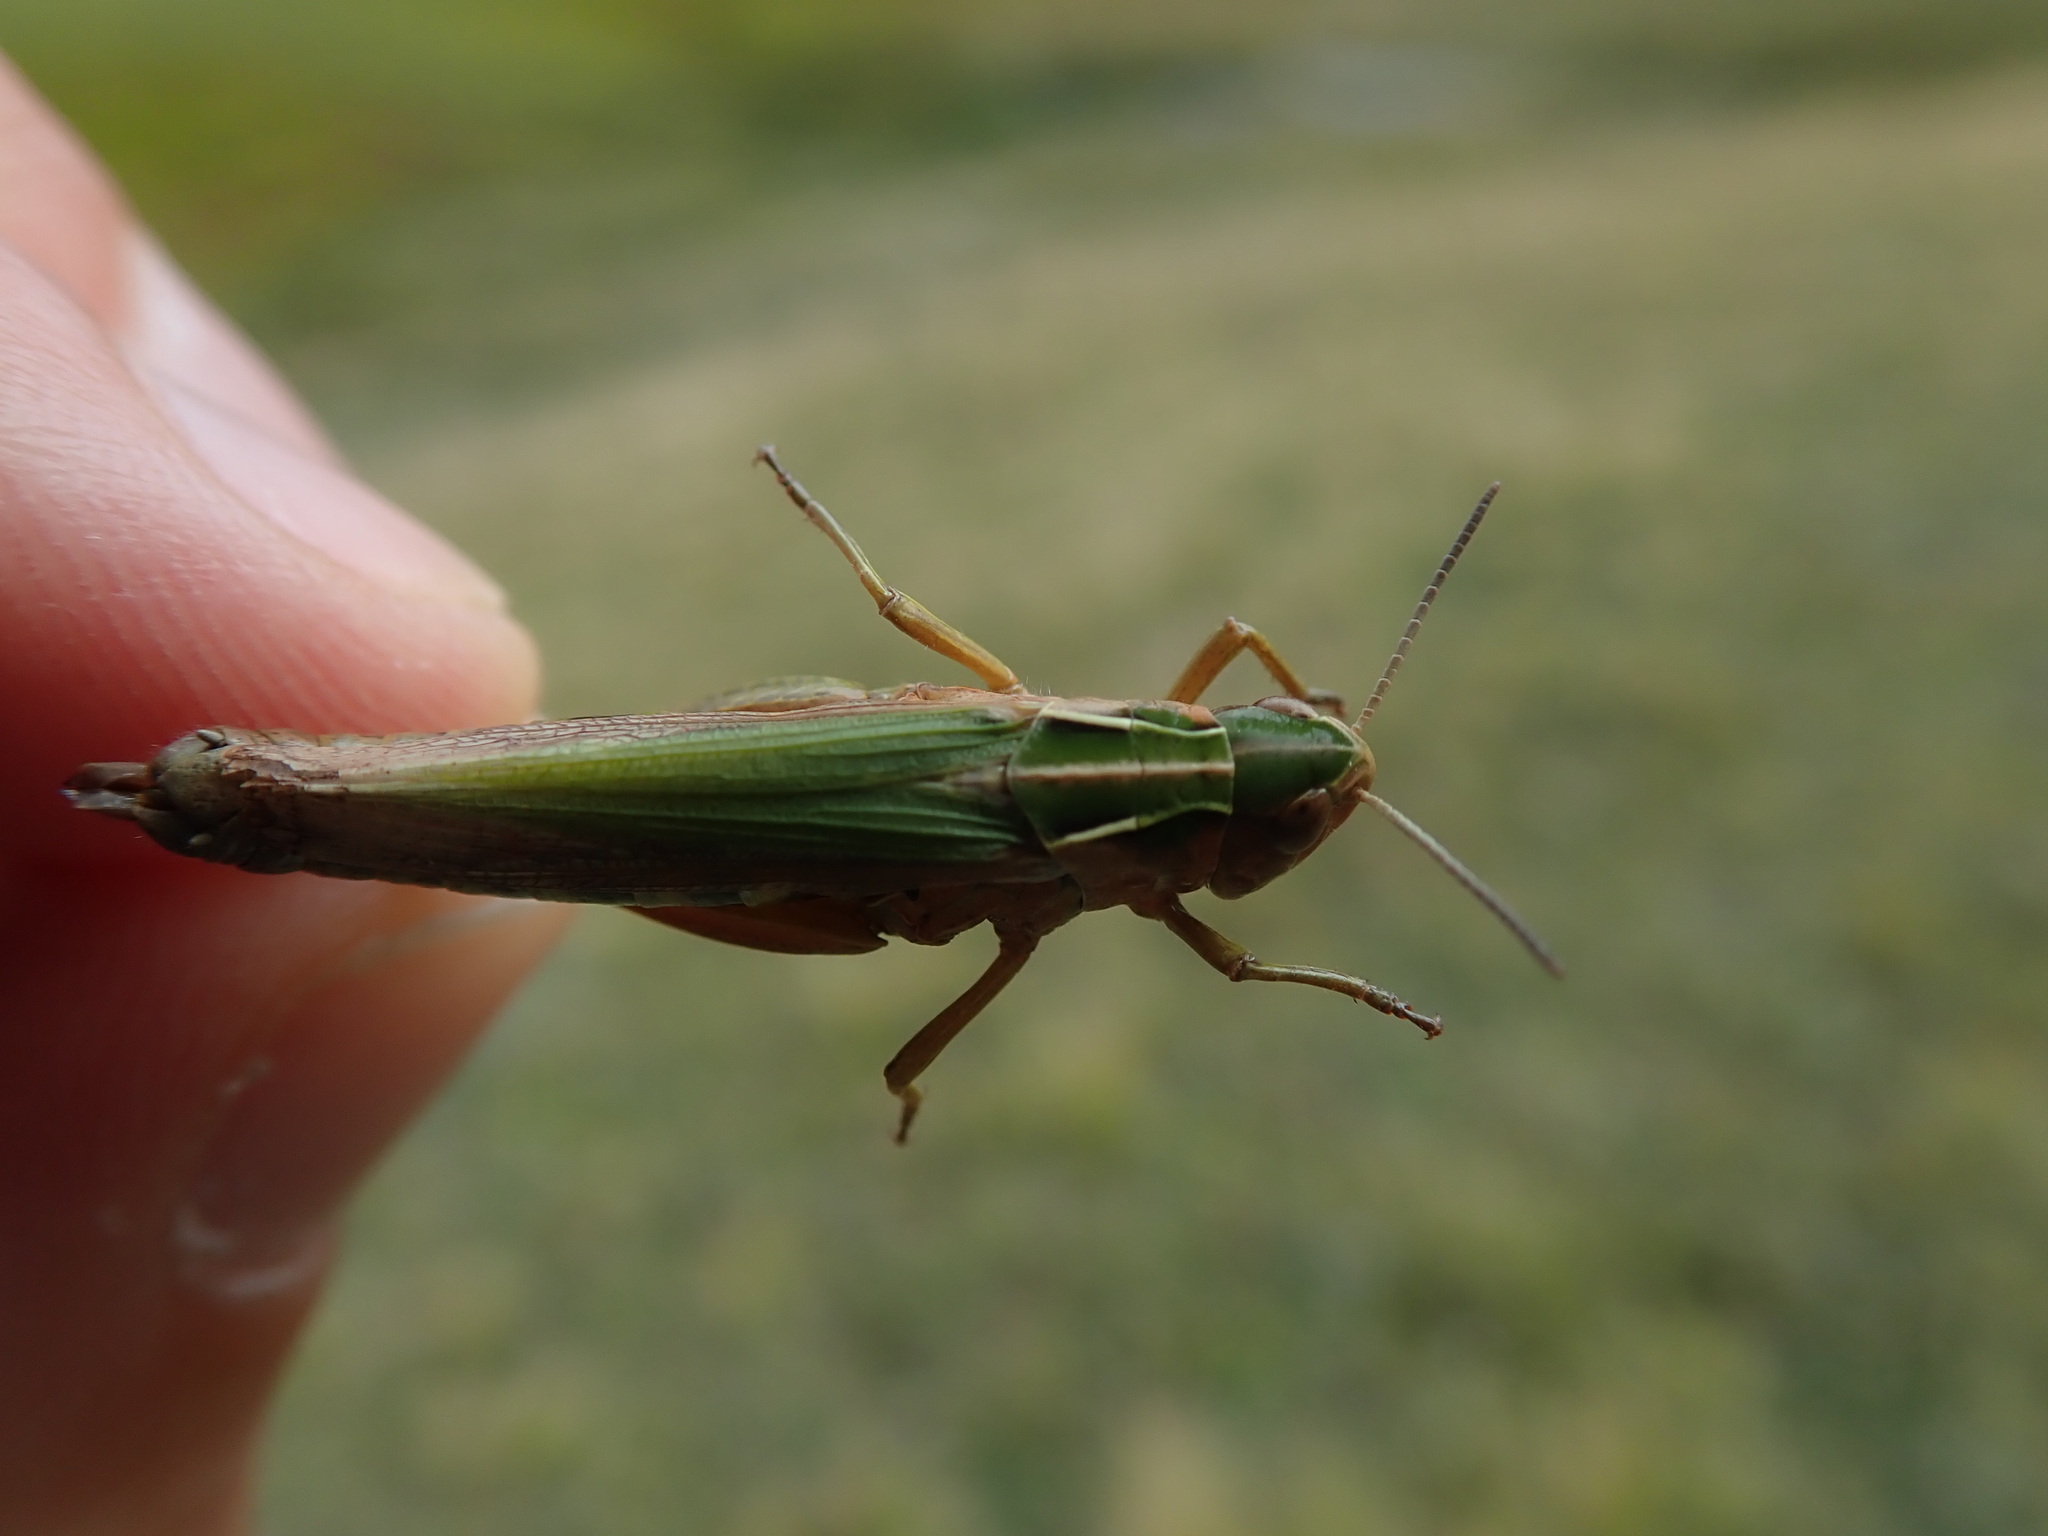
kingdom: Animalia
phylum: Arthropoda
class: Insecta
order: Orthoptera
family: Acrididae
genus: Omocestus
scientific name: Omocestus viridulus
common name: Common green grasshopper
